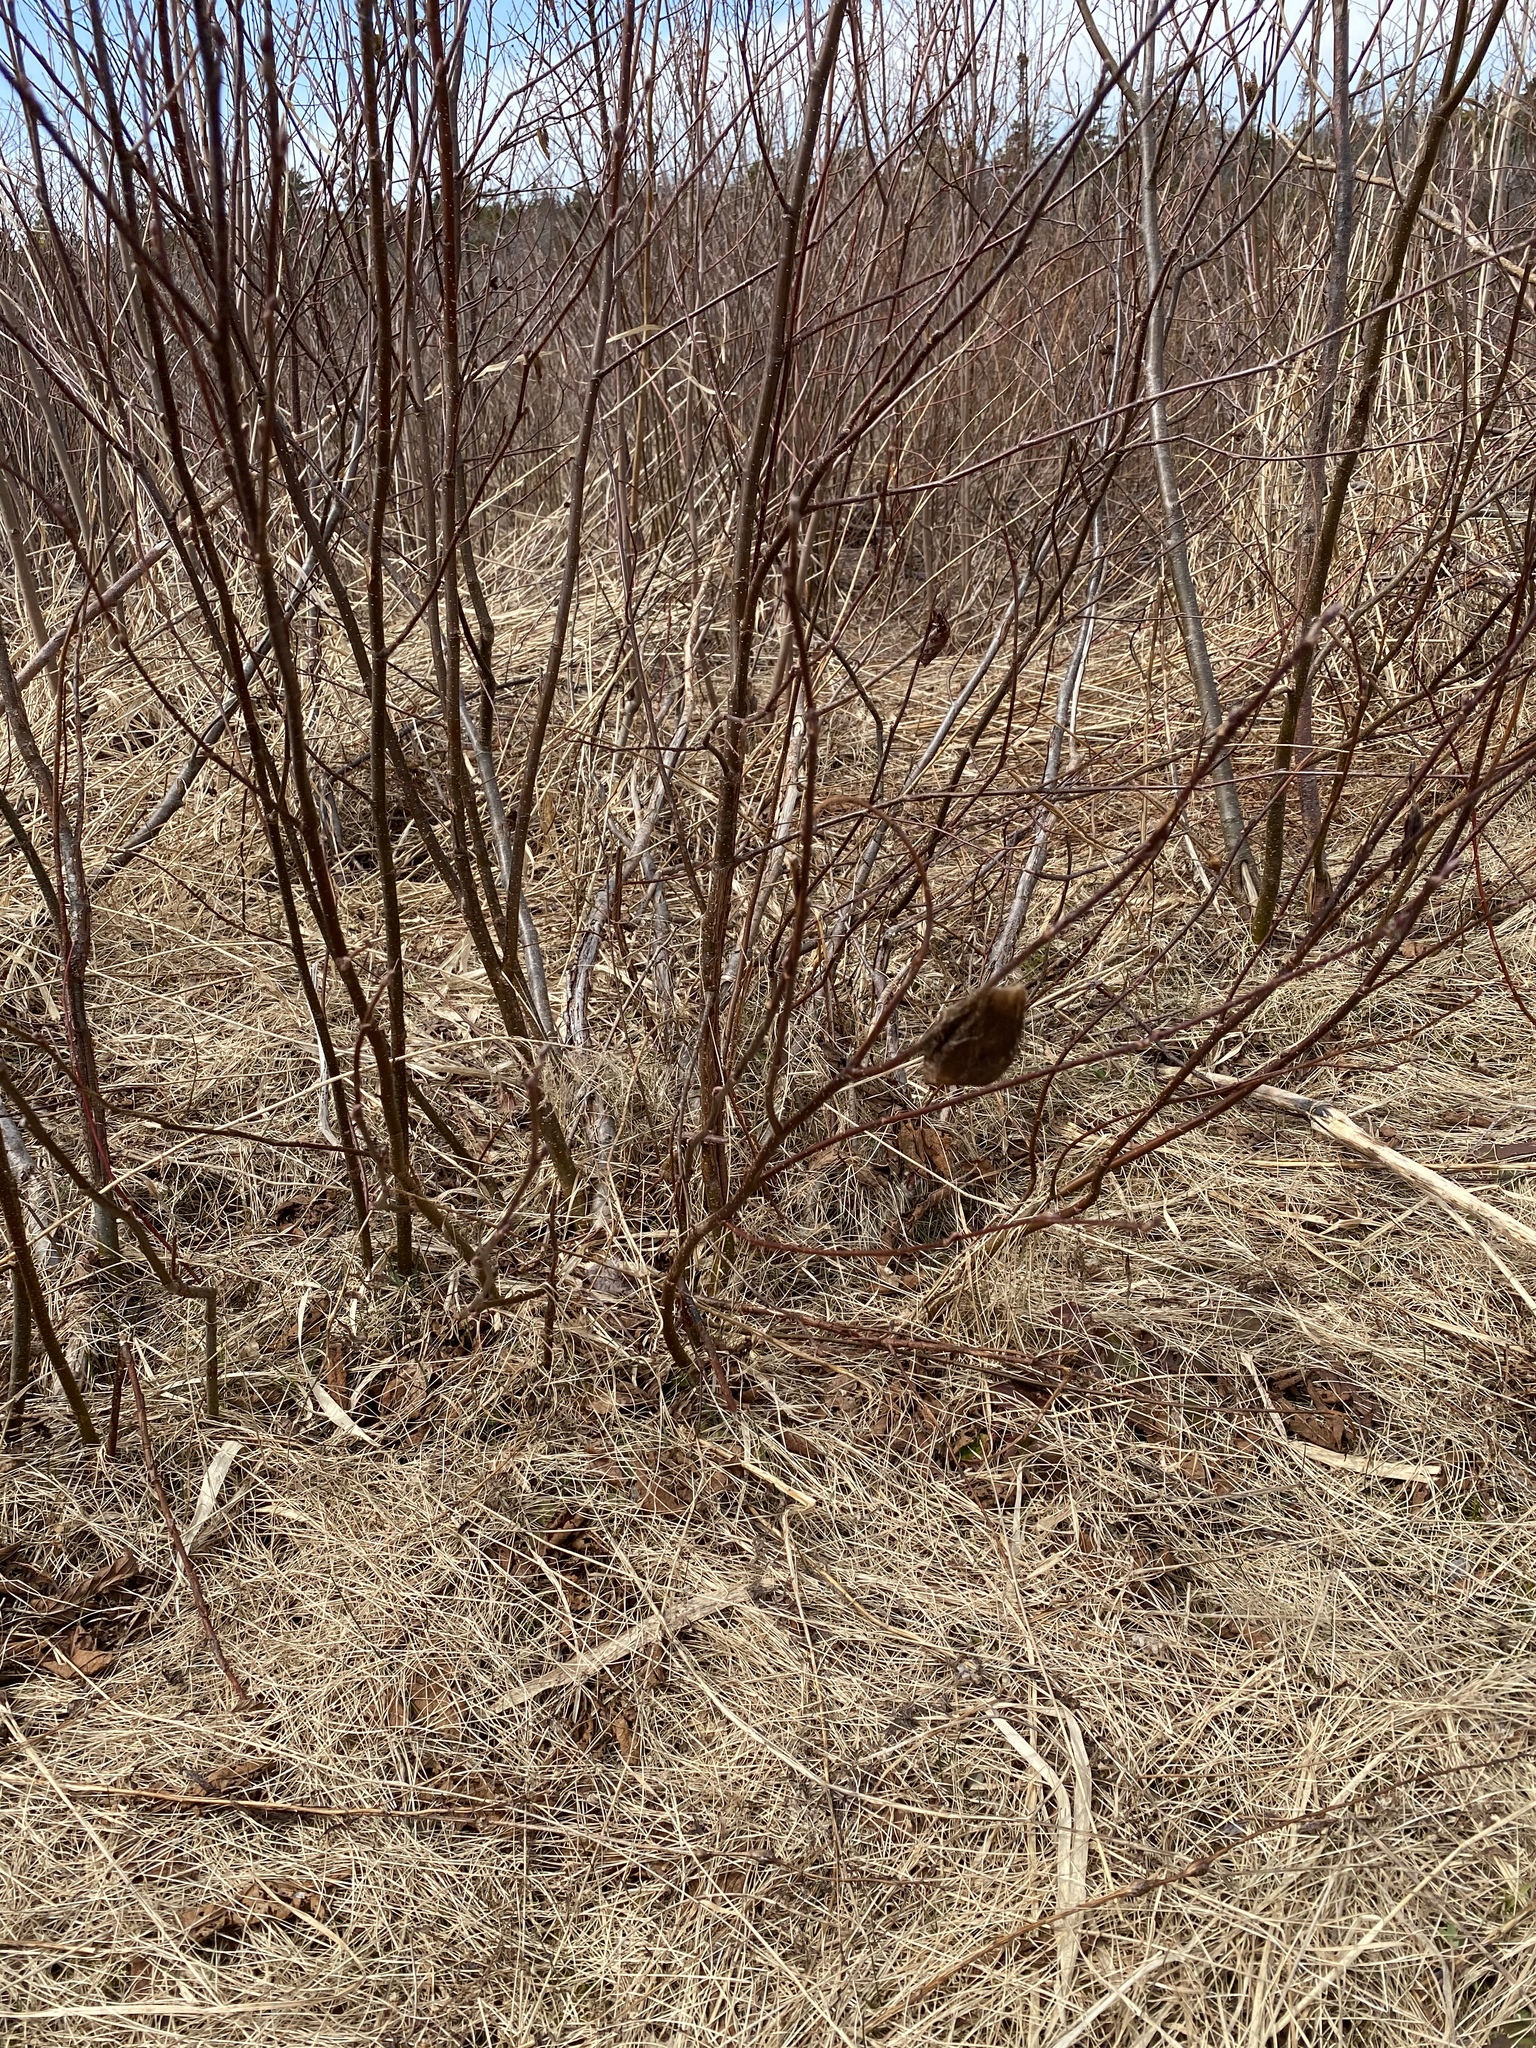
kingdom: Animalia
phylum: Arthropoda
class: Insecta
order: Lepidoptera
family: Saturniidae
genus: Hyalophora
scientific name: Hyalophora cecropia
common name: Cecropia silkmoth
